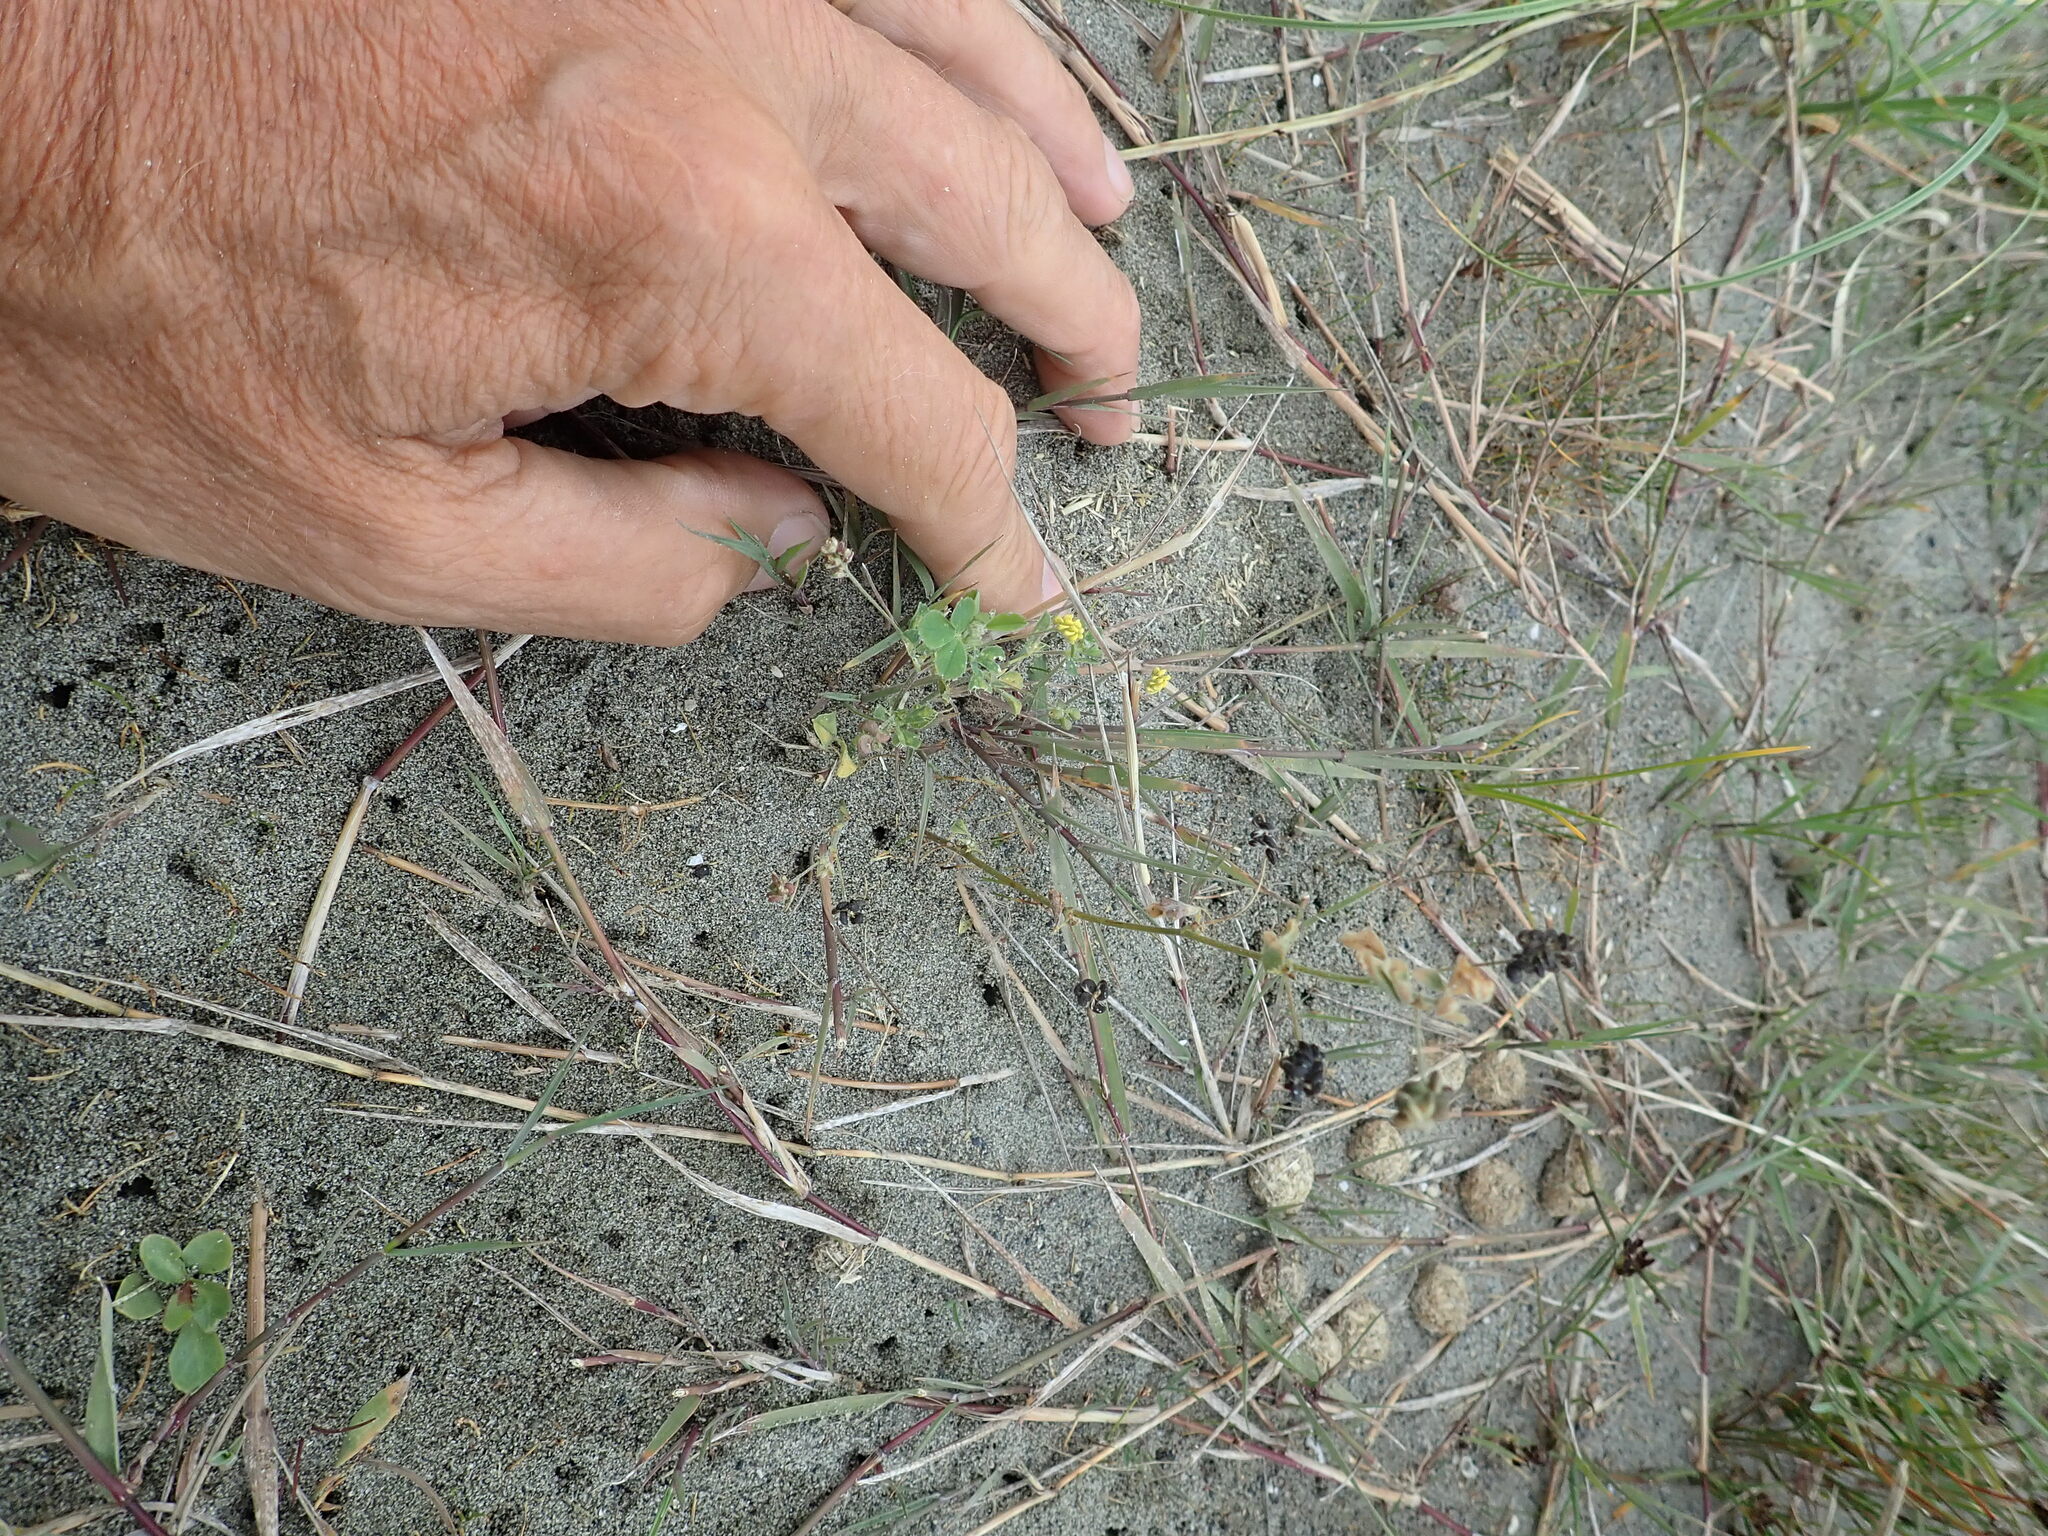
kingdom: Plantae
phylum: Tracheophyta
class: Magnoliopsida
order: Fabales
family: Fabaceae
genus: Medicago
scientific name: Medicago lupulina
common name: Black medick
